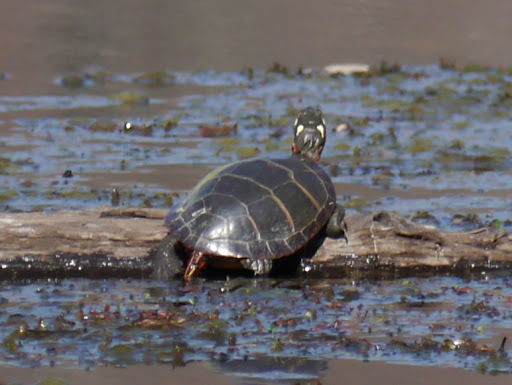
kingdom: Animalia
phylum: Chordata
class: Testudines
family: Emydidae
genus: Chrysemys
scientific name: Chrysemys picta
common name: Painted turtle
